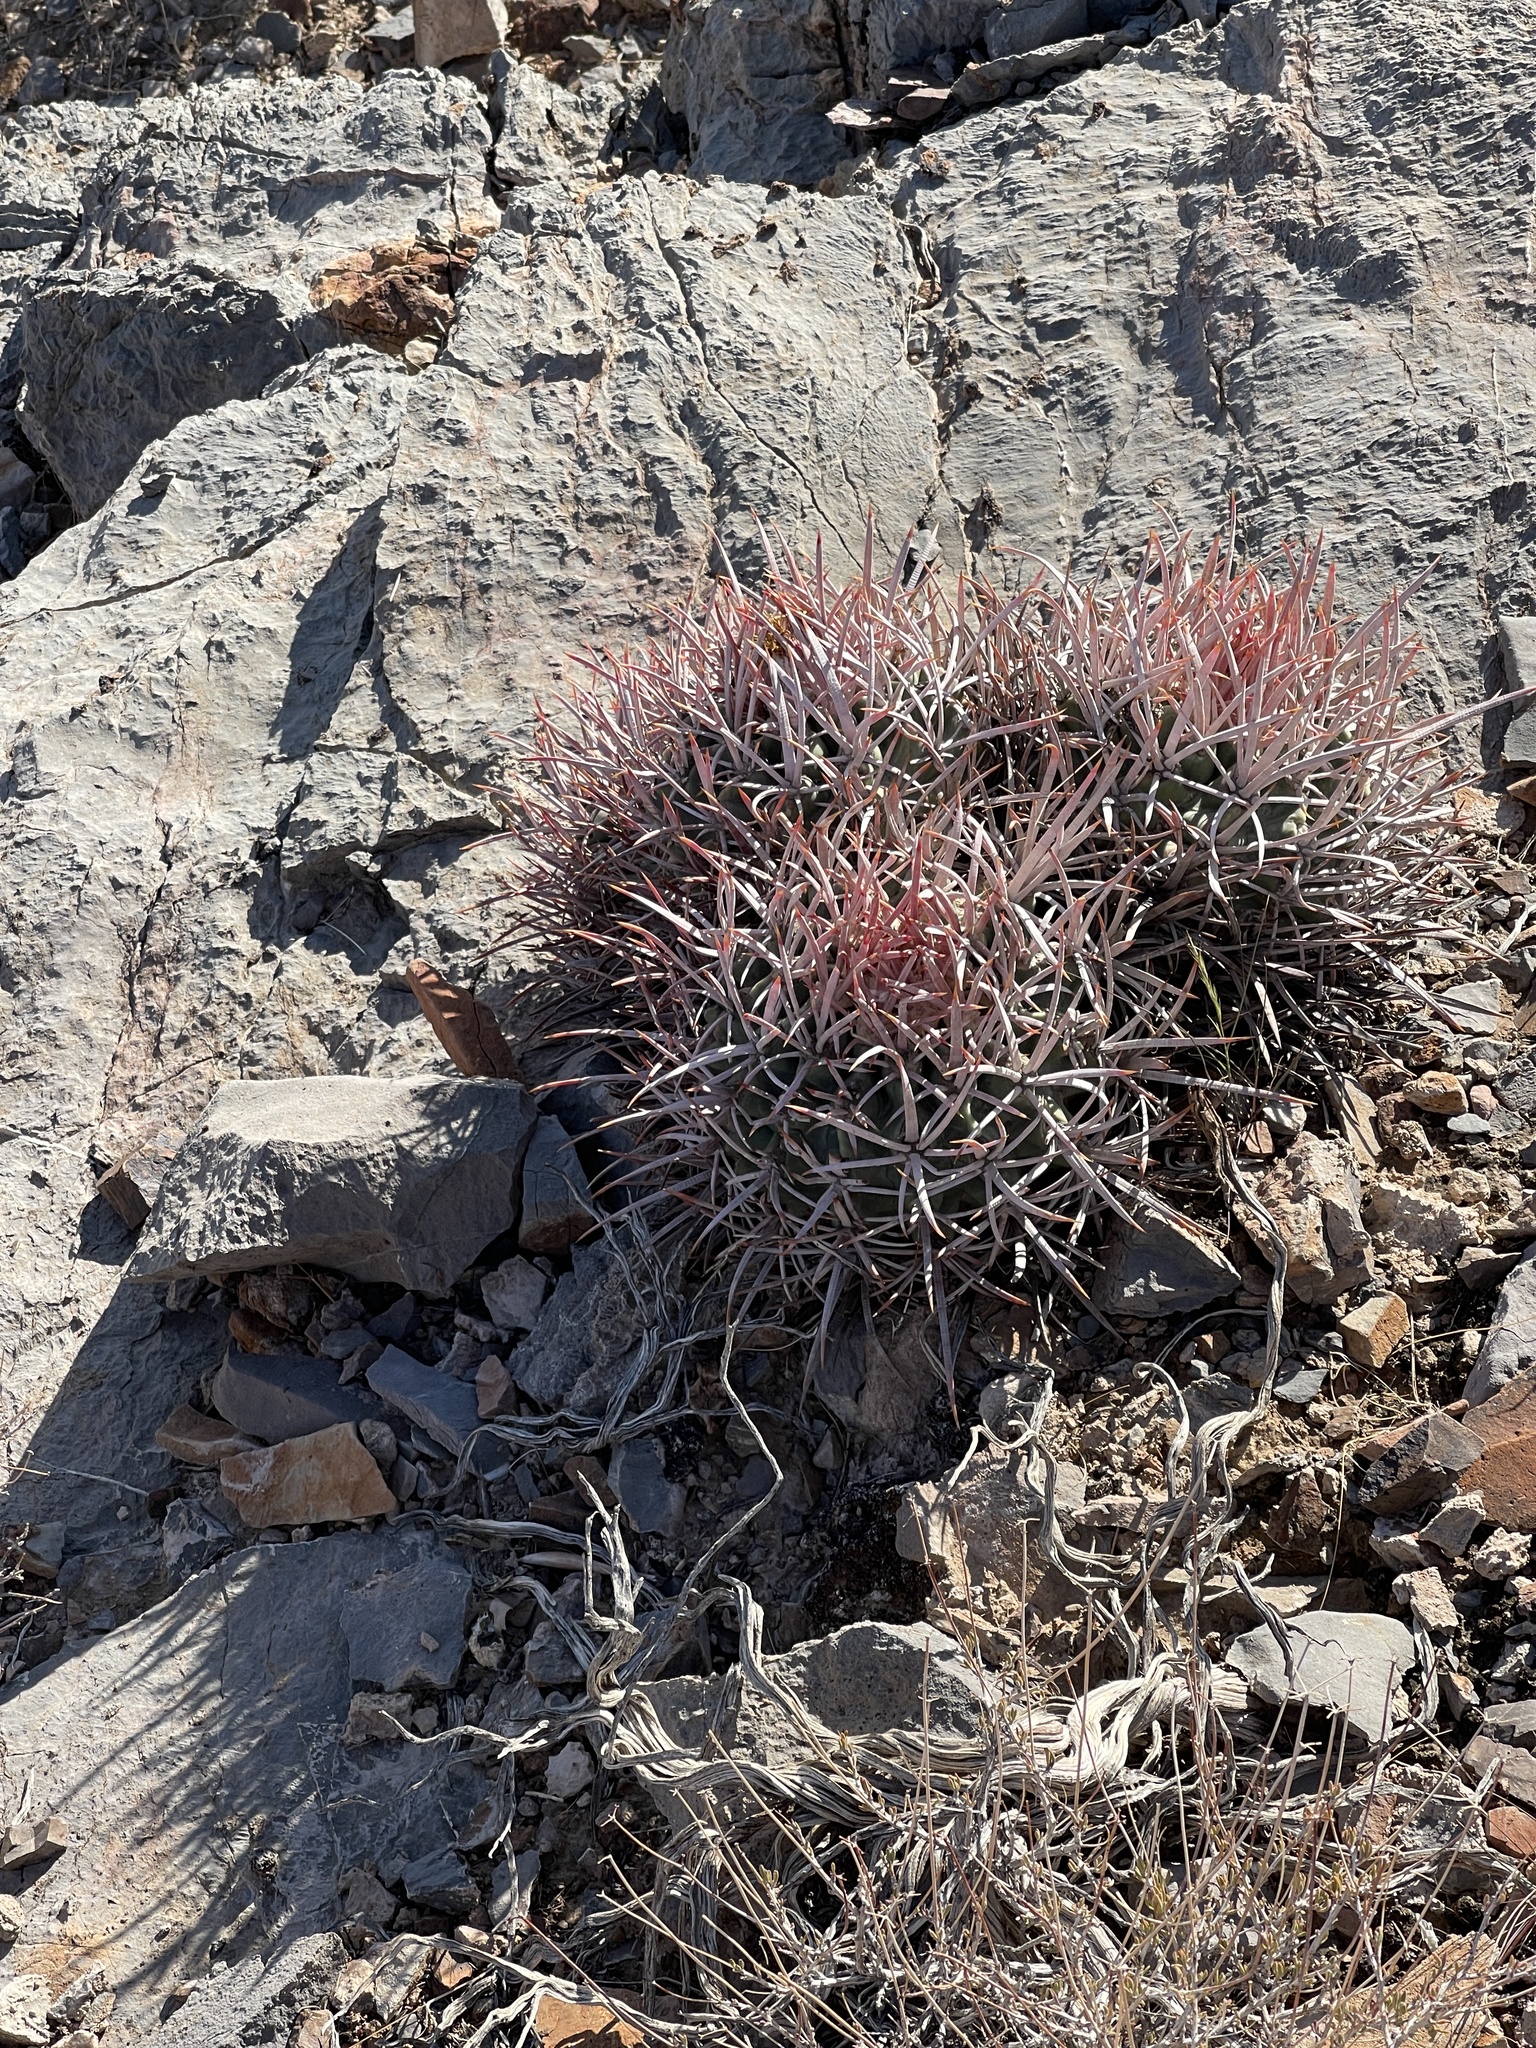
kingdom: Plantae
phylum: Tracheophyta
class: Magnoliopsida
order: Caryophyllales
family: Cactaceae
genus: Echinocactus
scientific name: Echinocactus polycephalus
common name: Cottontop cactus
